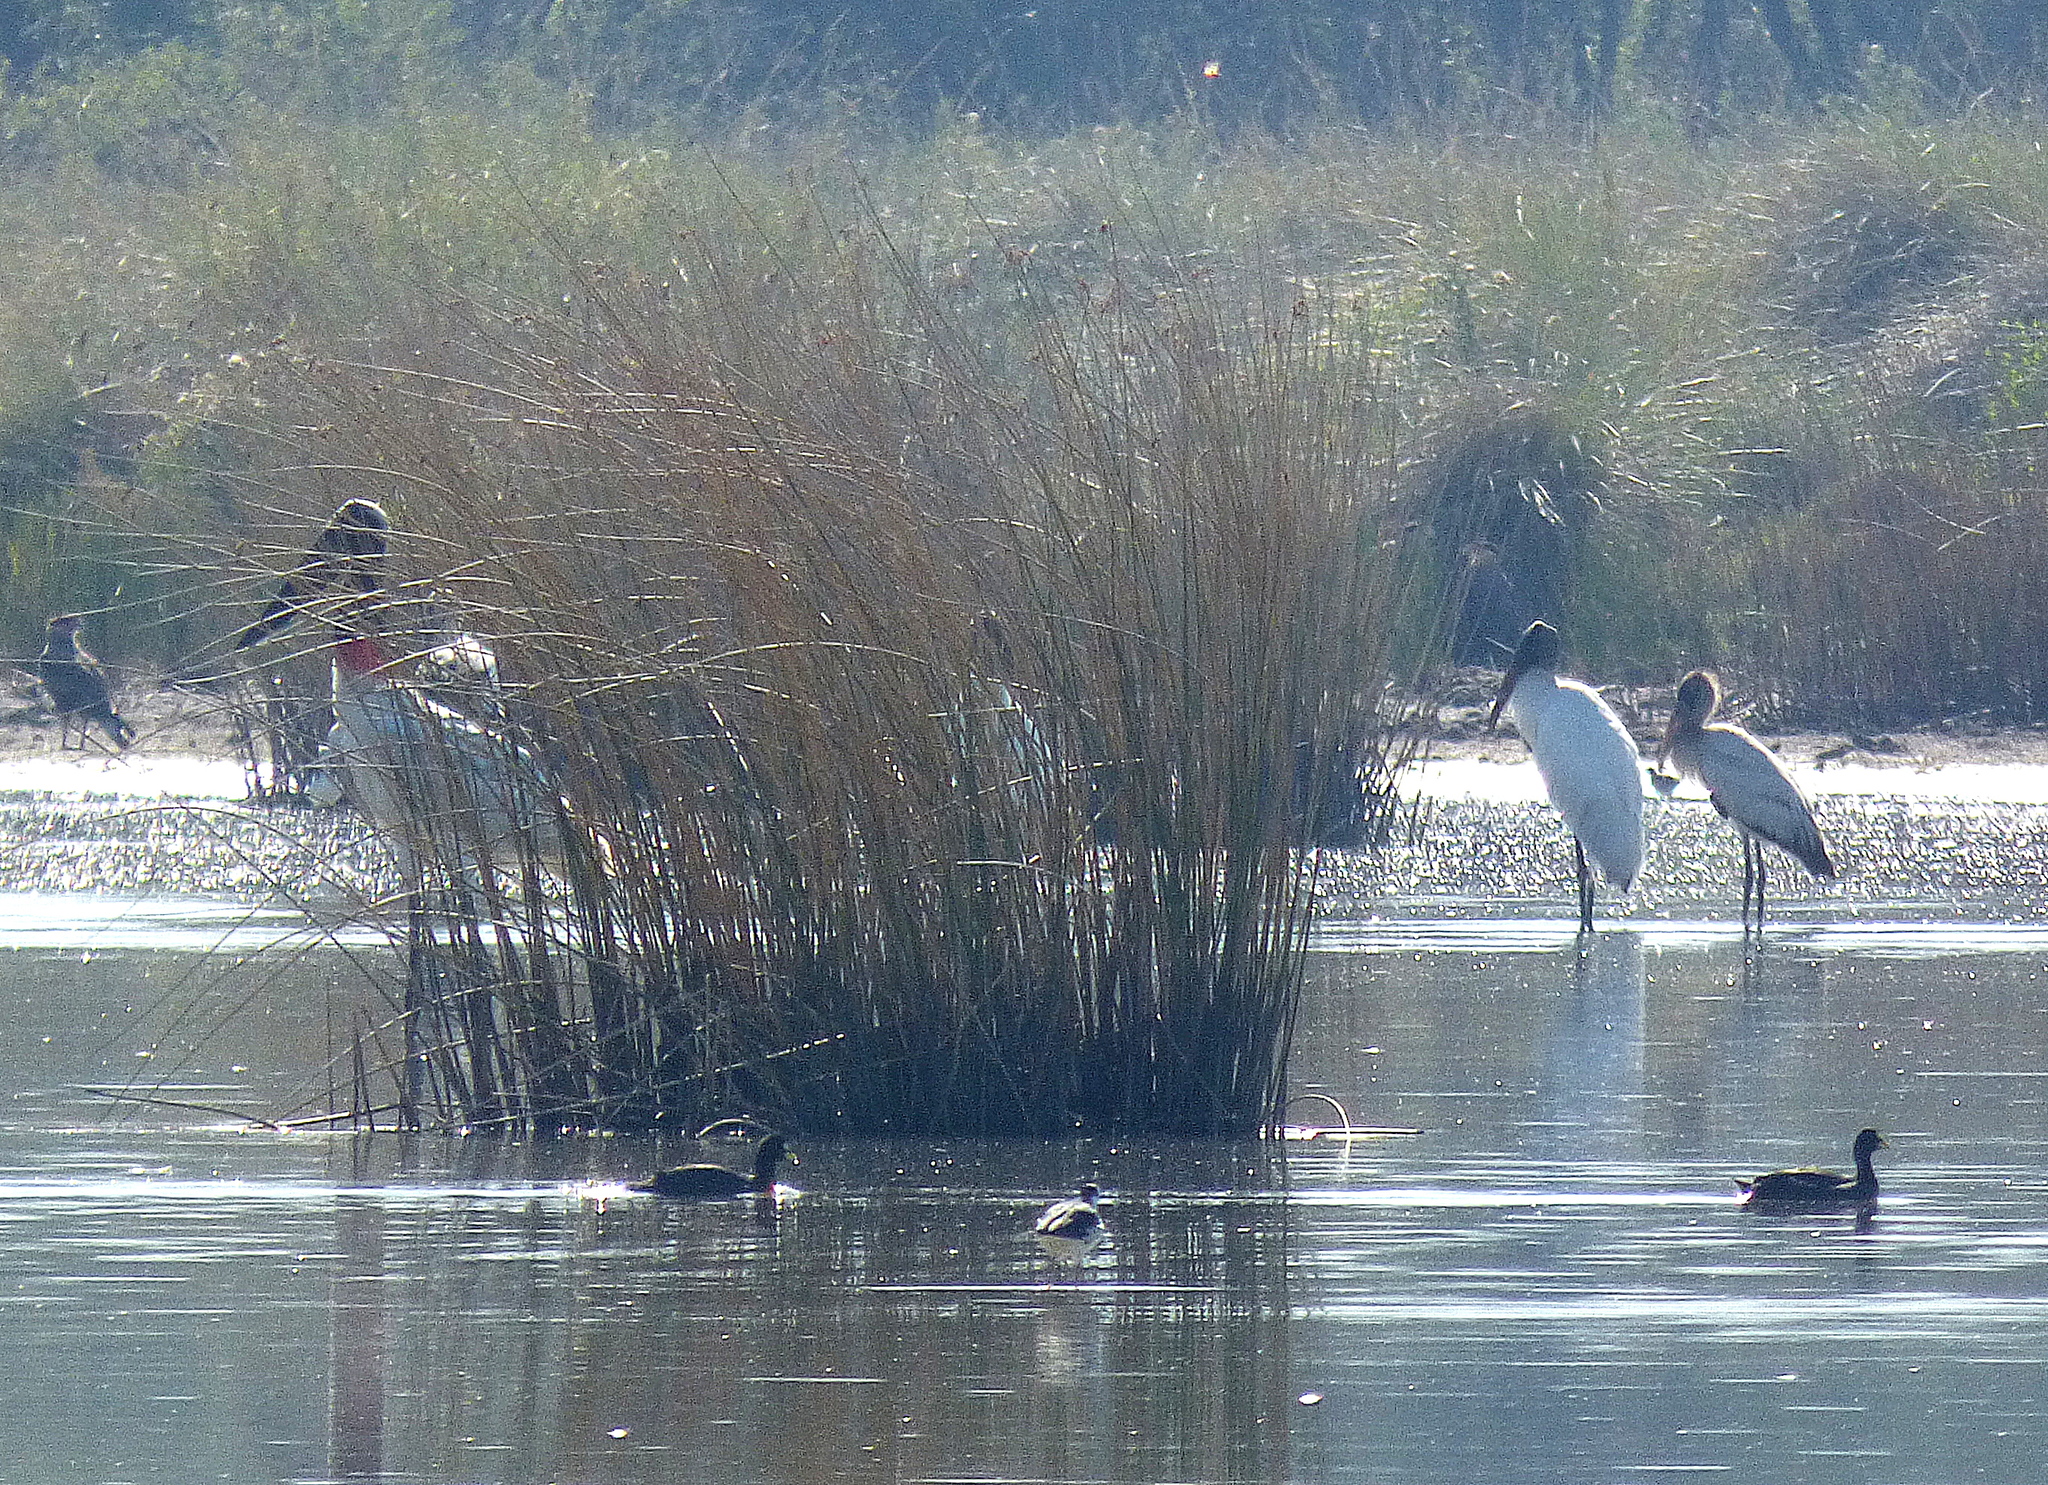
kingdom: Animalia
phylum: Chordata
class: Aves
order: Ciconiiformes
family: Ciconiidae
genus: Jabiru
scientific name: Jabiru mycteria
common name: Jabiru
